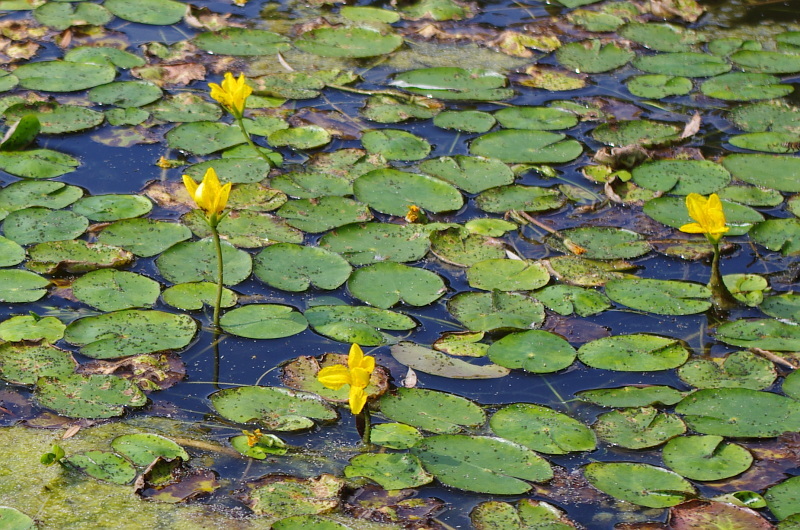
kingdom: Plantae
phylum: Tracheophyta
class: Magnoliopsida
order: Asterales
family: Menyanthaceae
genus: Nymphoides
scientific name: Nymphoides peltata
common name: Fringed water-lily
